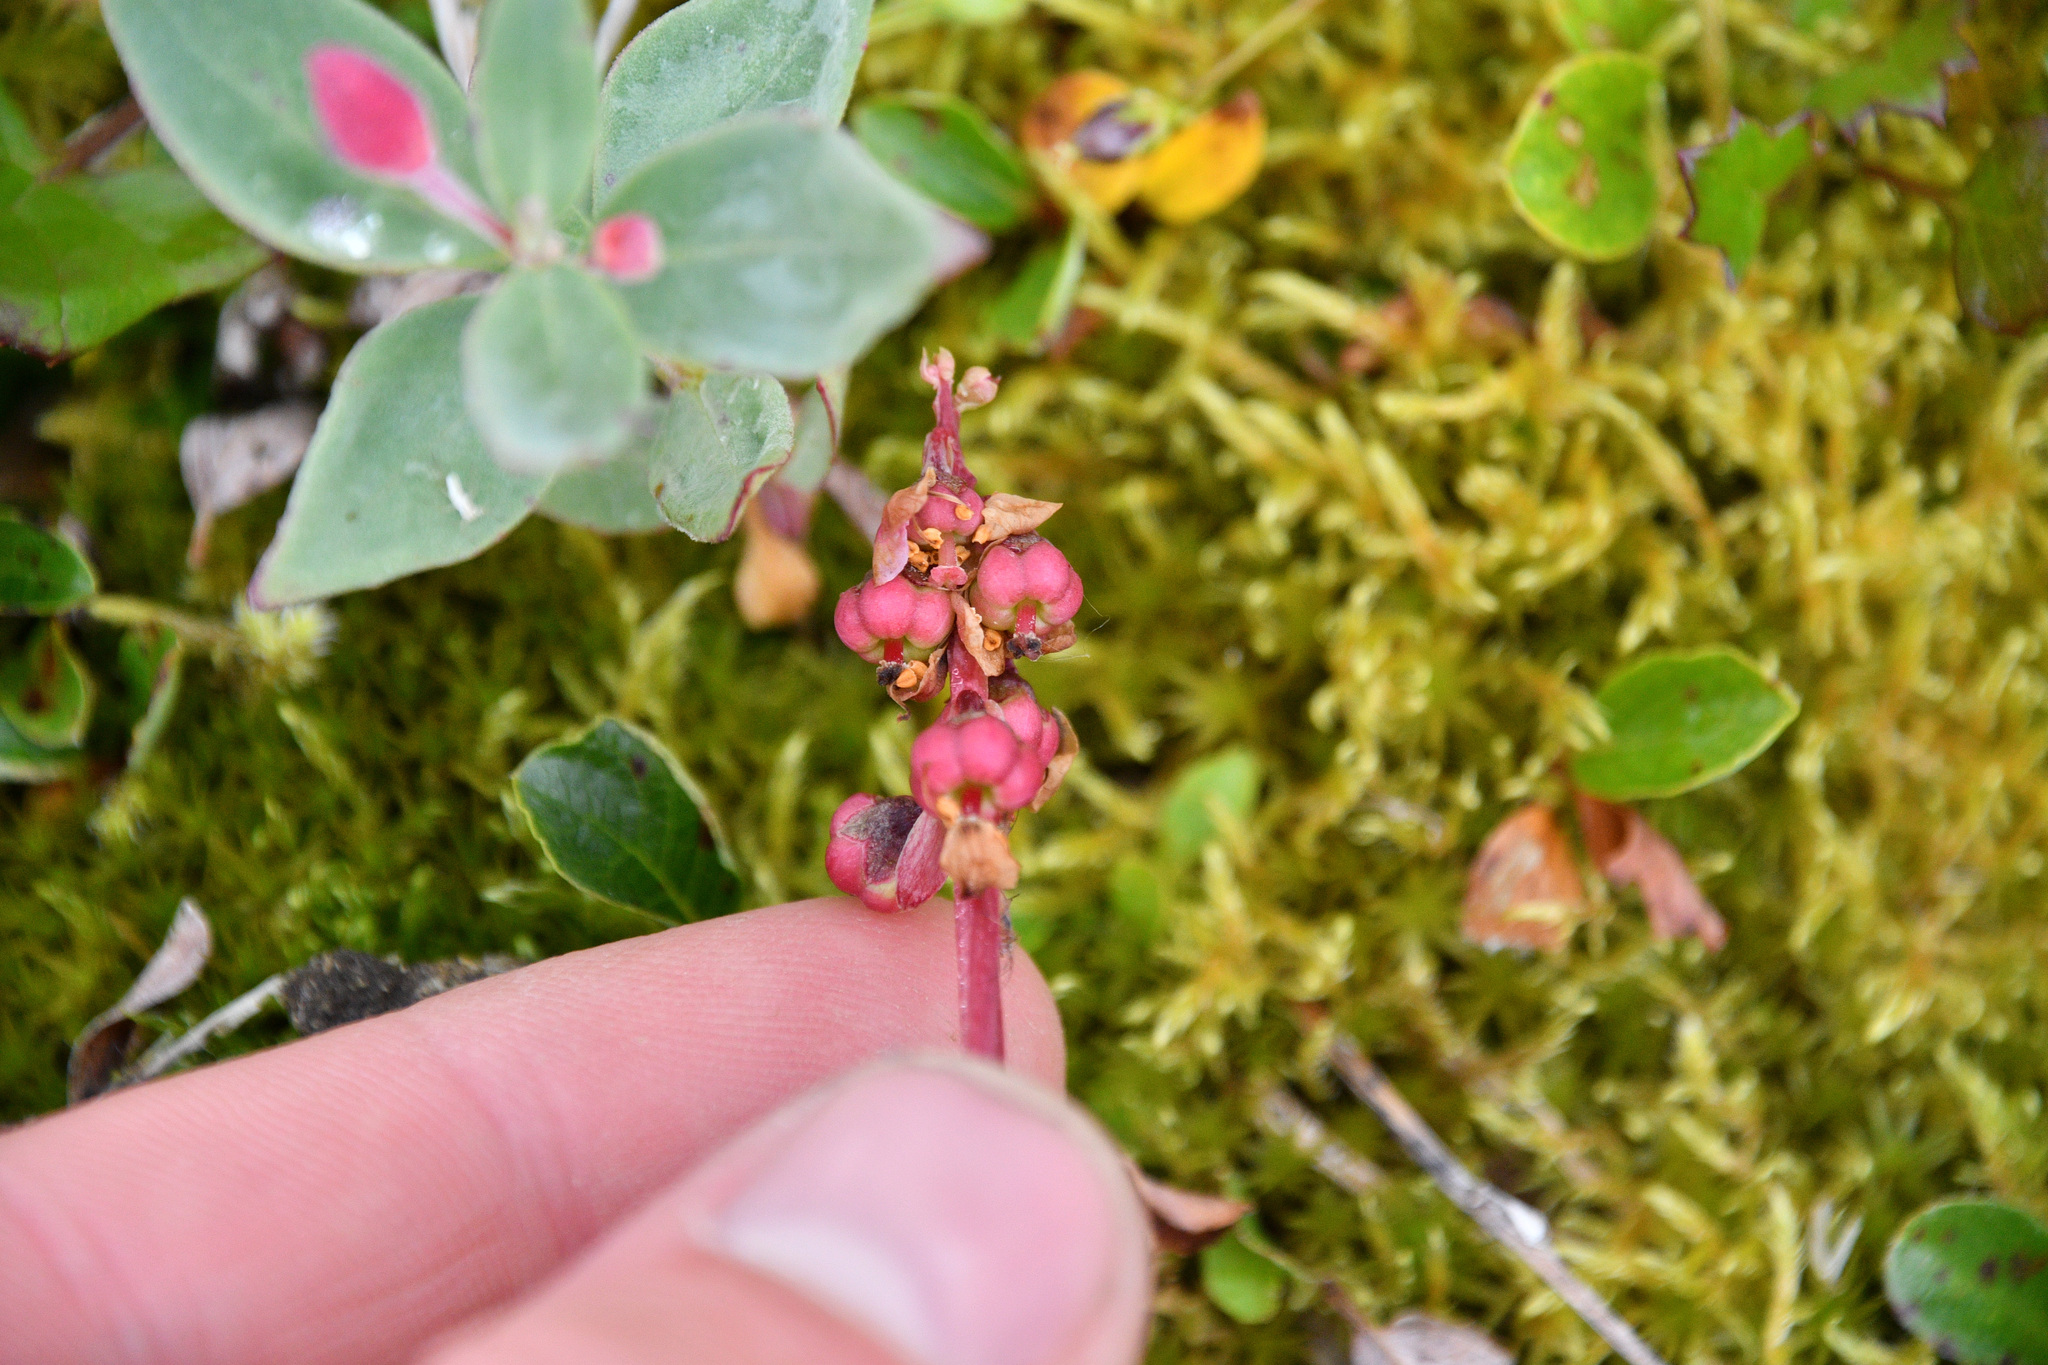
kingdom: Plantae
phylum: Tracheophyta
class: Magnoliopsida
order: Ericales
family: Ericaceae
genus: Pyrola
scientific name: Pyrola minor
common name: Common wintergreen
